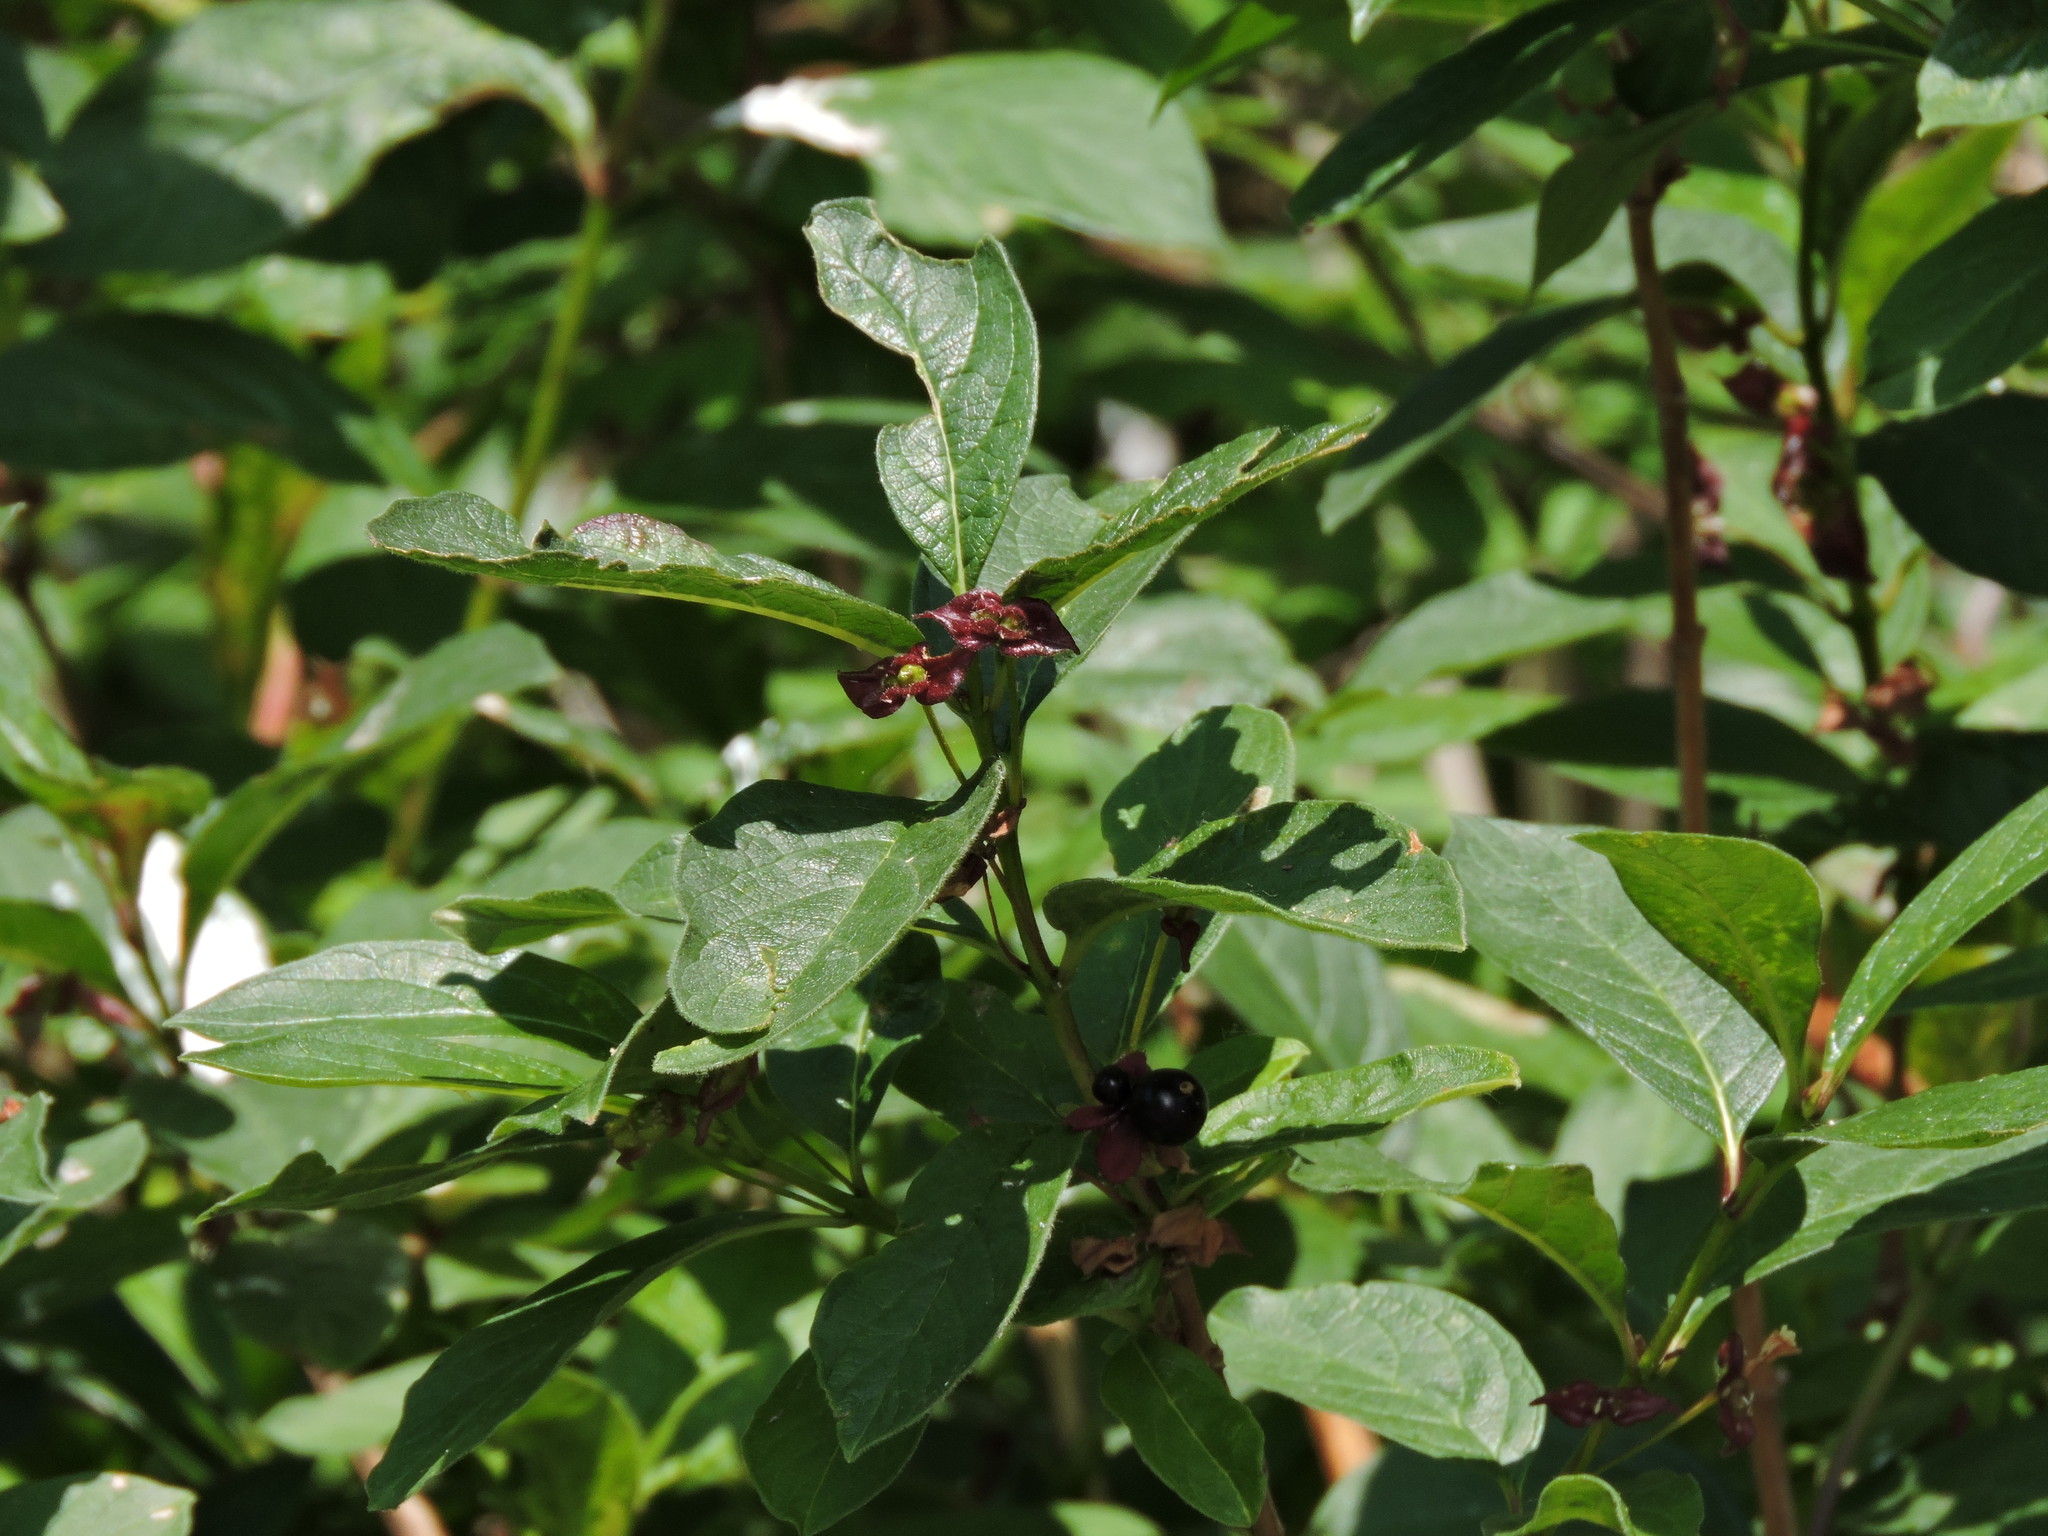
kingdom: Plantae
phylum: Tracheophyta
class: Magnoliopsida
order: Dipsacales
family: Caprifoliaceae
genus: Lonicera
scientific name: Lonicera involucrata
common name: Californian honeysuckle
